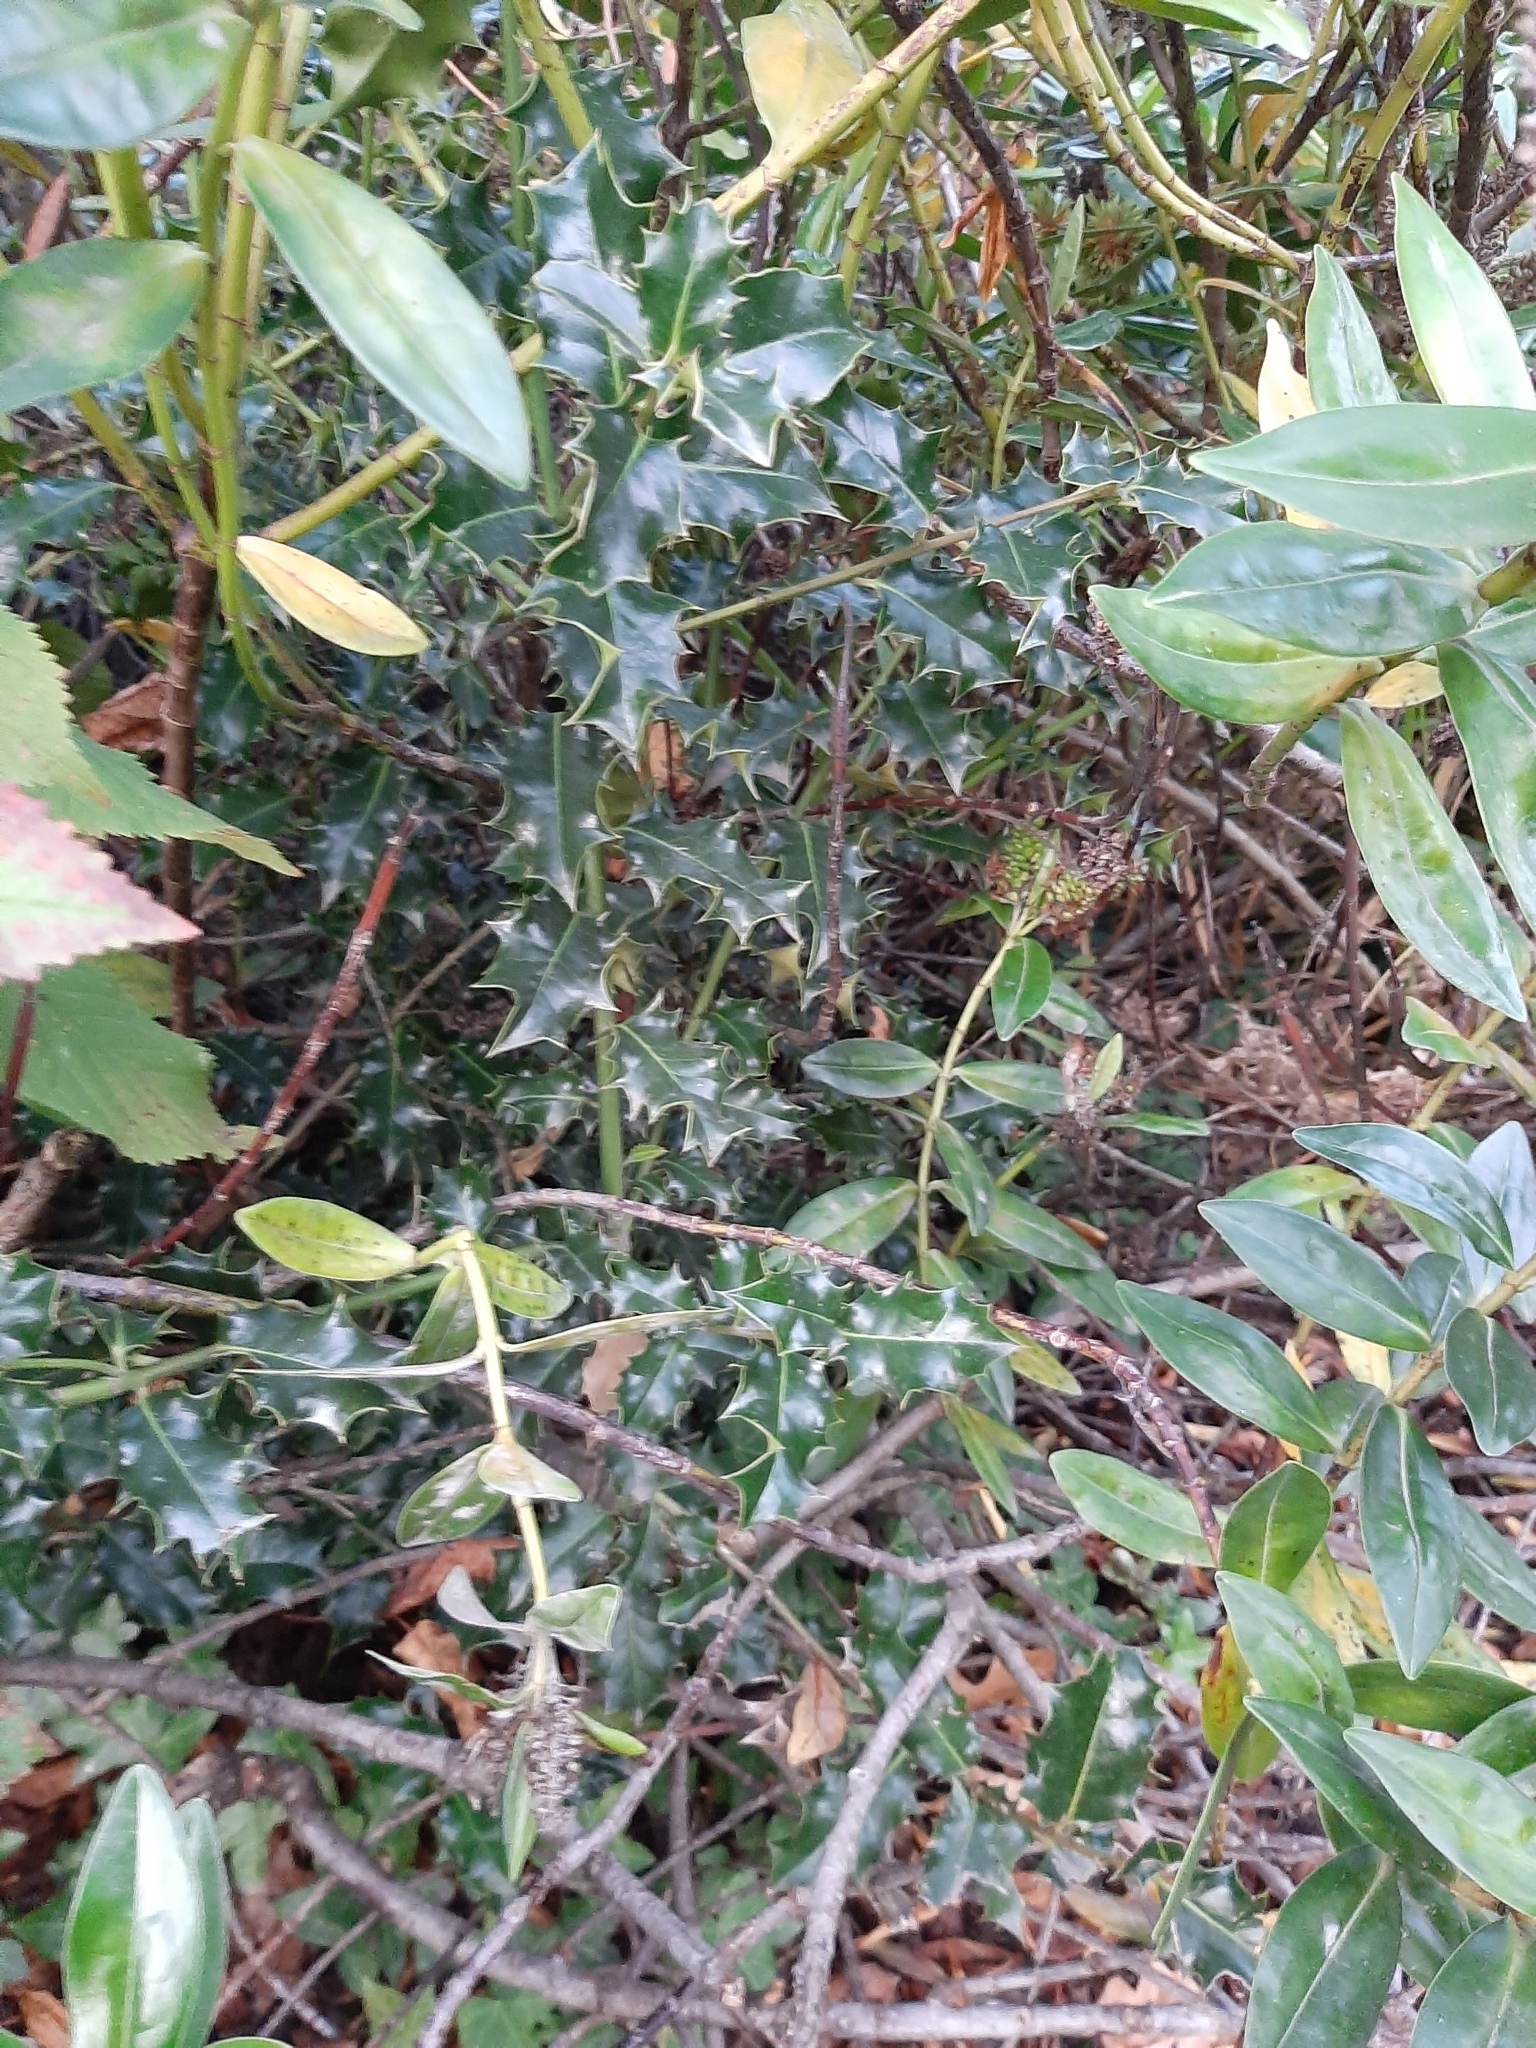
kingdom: Plantae
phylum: Tracheophyta
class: Magnoliopsida
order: Aquifoliales
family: Aquifoliaceae
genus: Ilex
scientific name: Ilex aquifolium
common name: English holly
